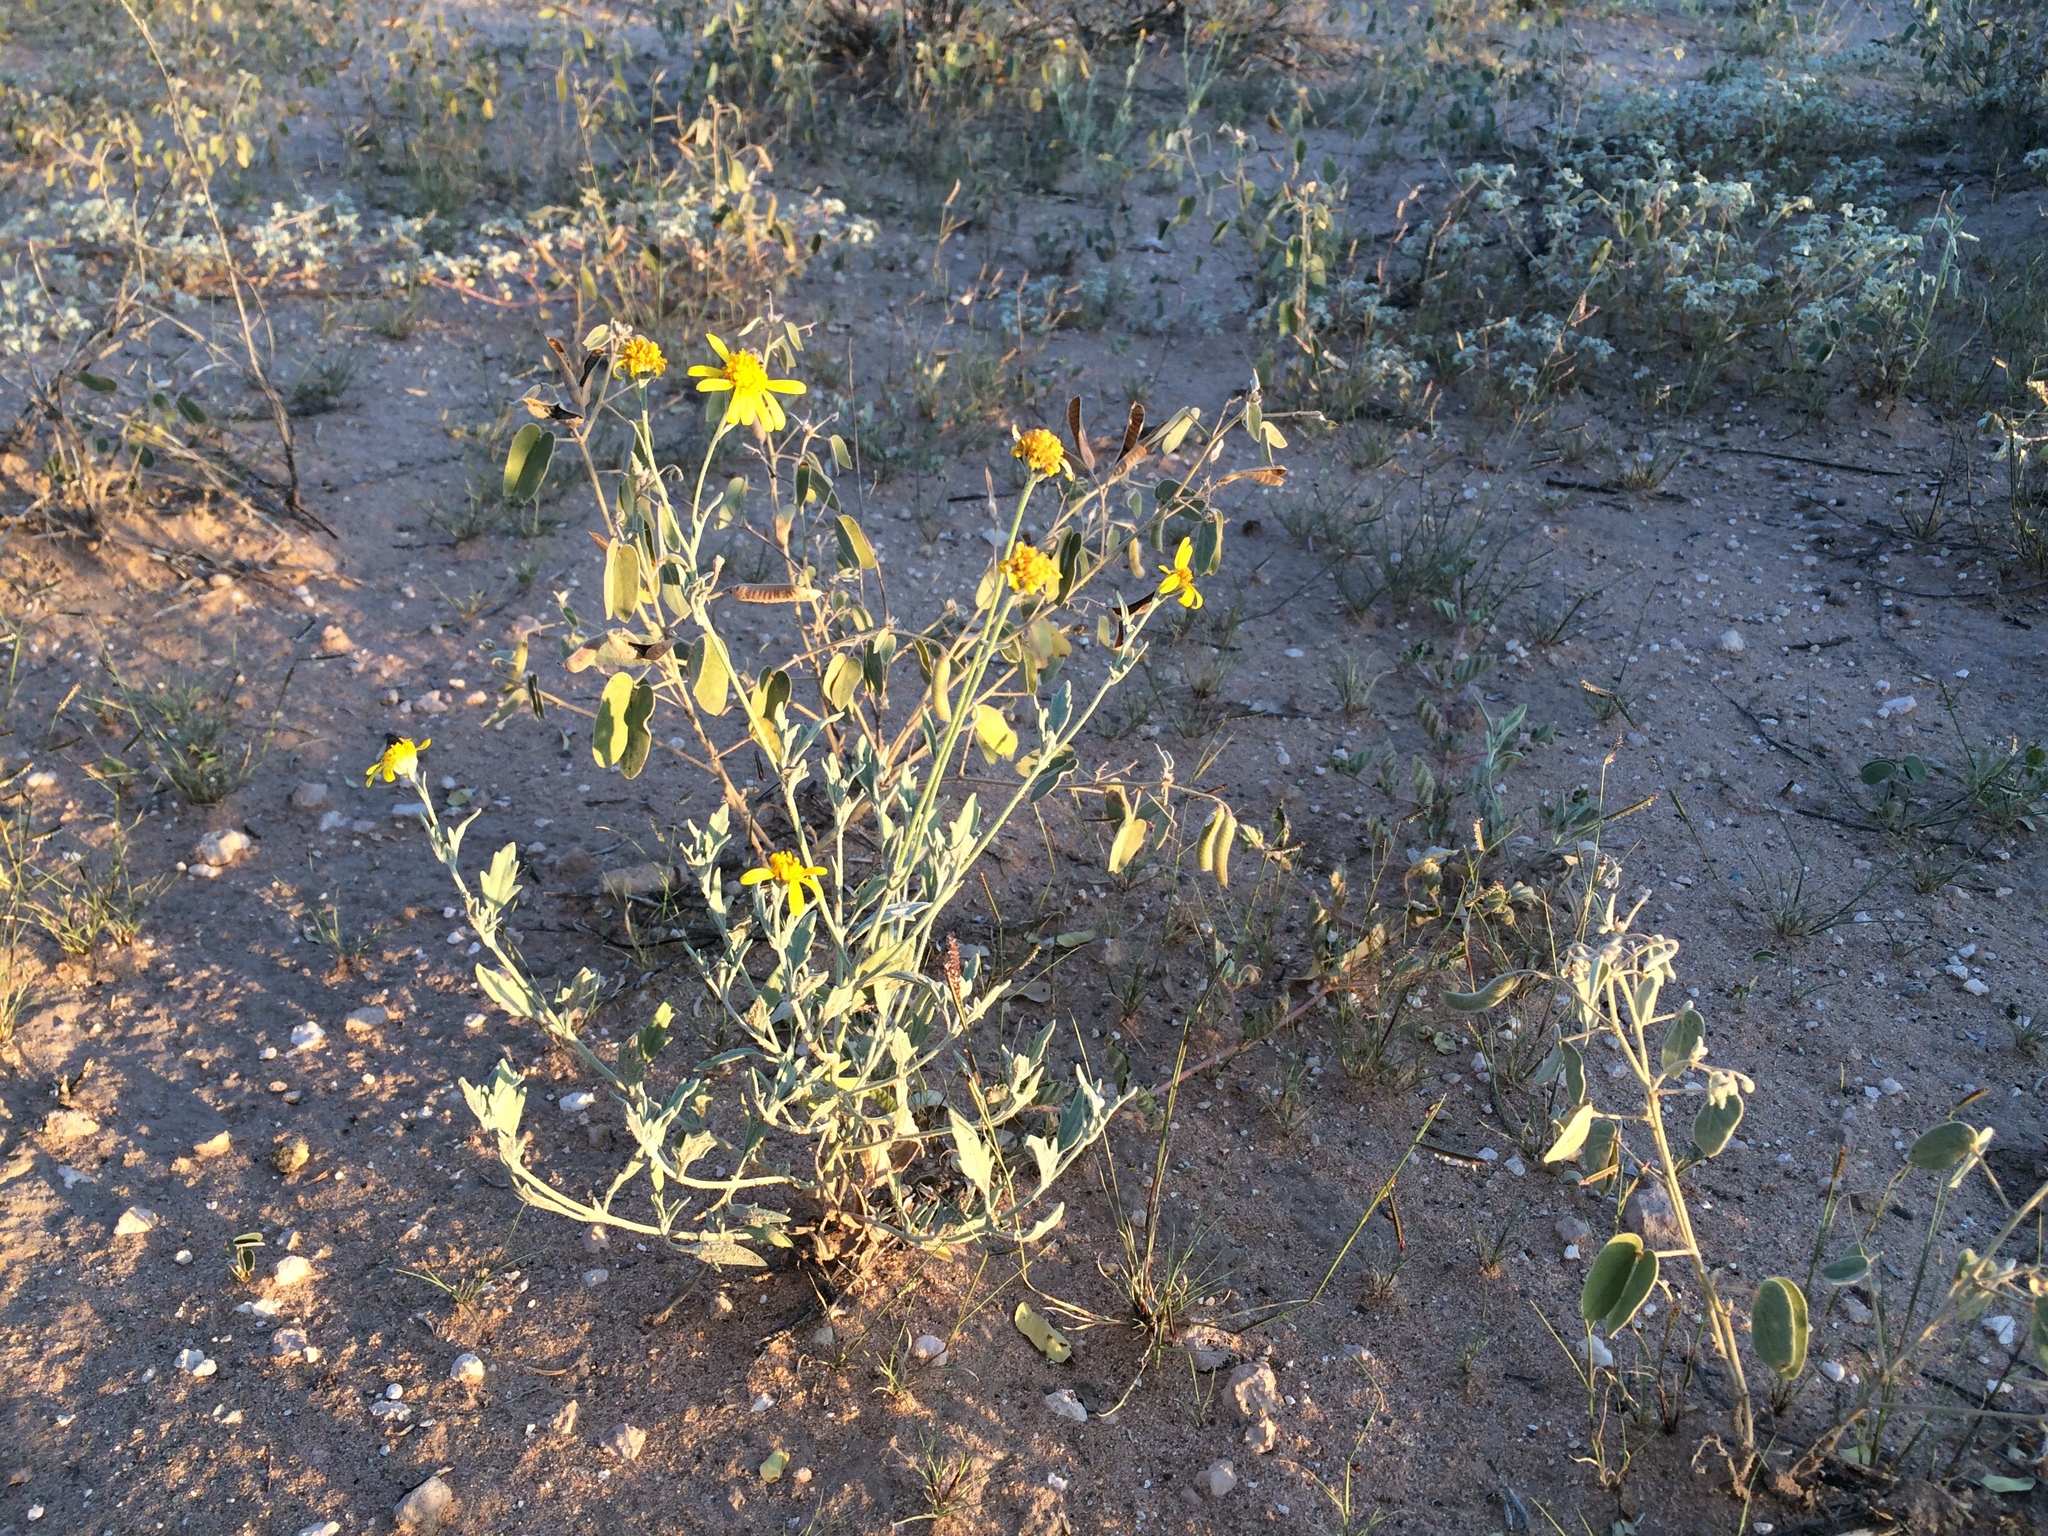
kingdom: Plantae
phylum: Tracheophyta
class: Magnoliopsida
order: Asterales
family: Asteraceae
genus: Picradeniopsis
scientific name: Picradeniopsis absinthifolia
